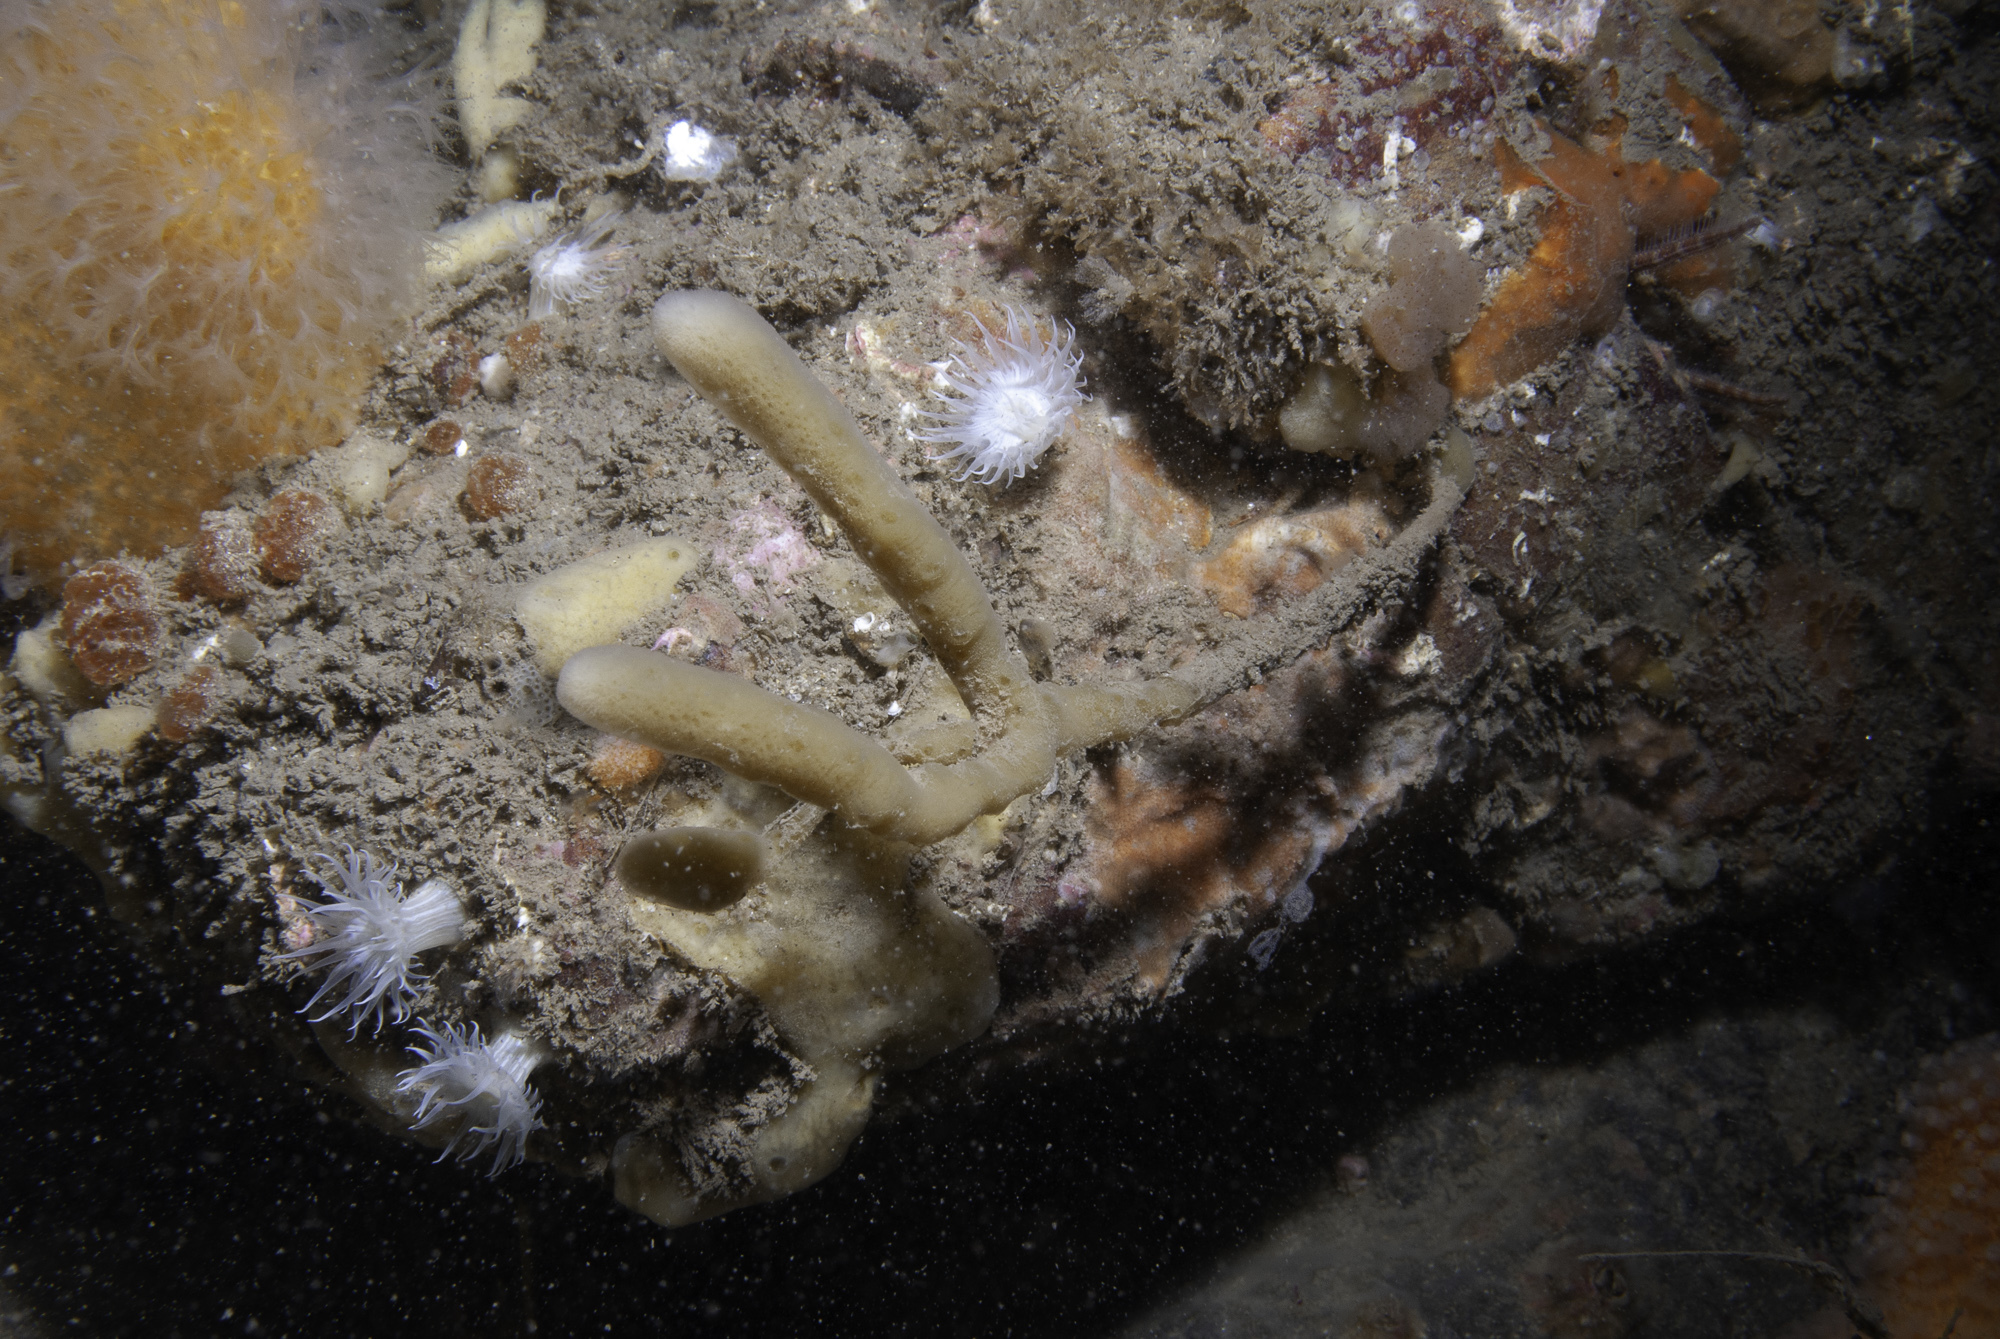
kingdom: Animalia
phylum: Porifera
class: Demospongiae
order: Haplosclerida
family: Chalinidae
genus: Haliclona
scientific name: Haliclona oculata
